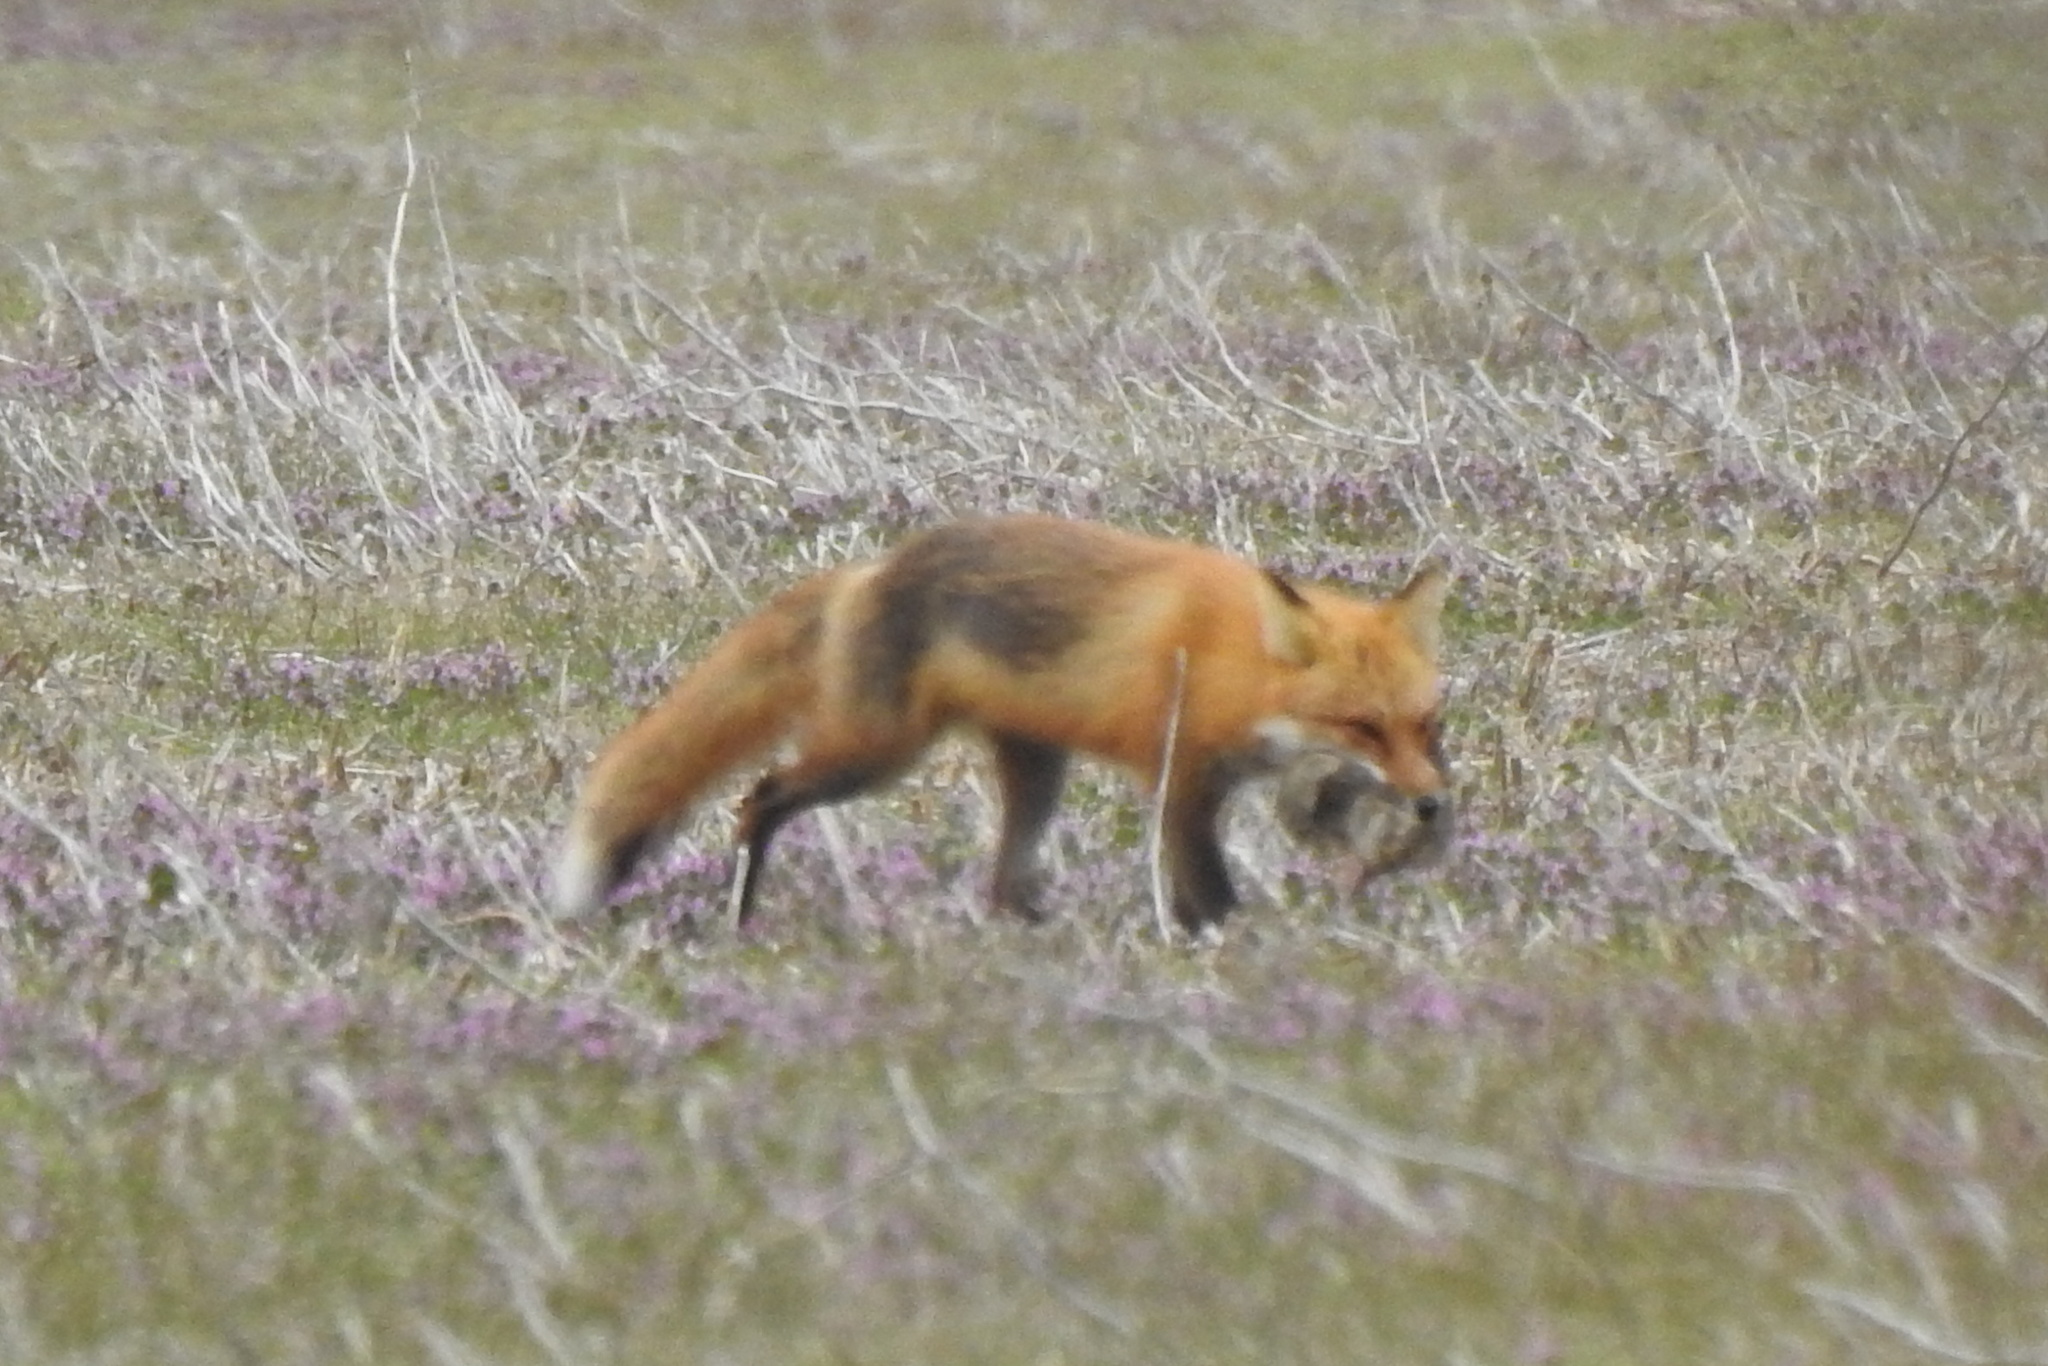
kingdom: Animalia
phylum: Chordata
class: Mammalia
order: Carnivora
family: Canidae
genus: Vulpes
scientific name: Vulpes vulpes
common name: Red fox
